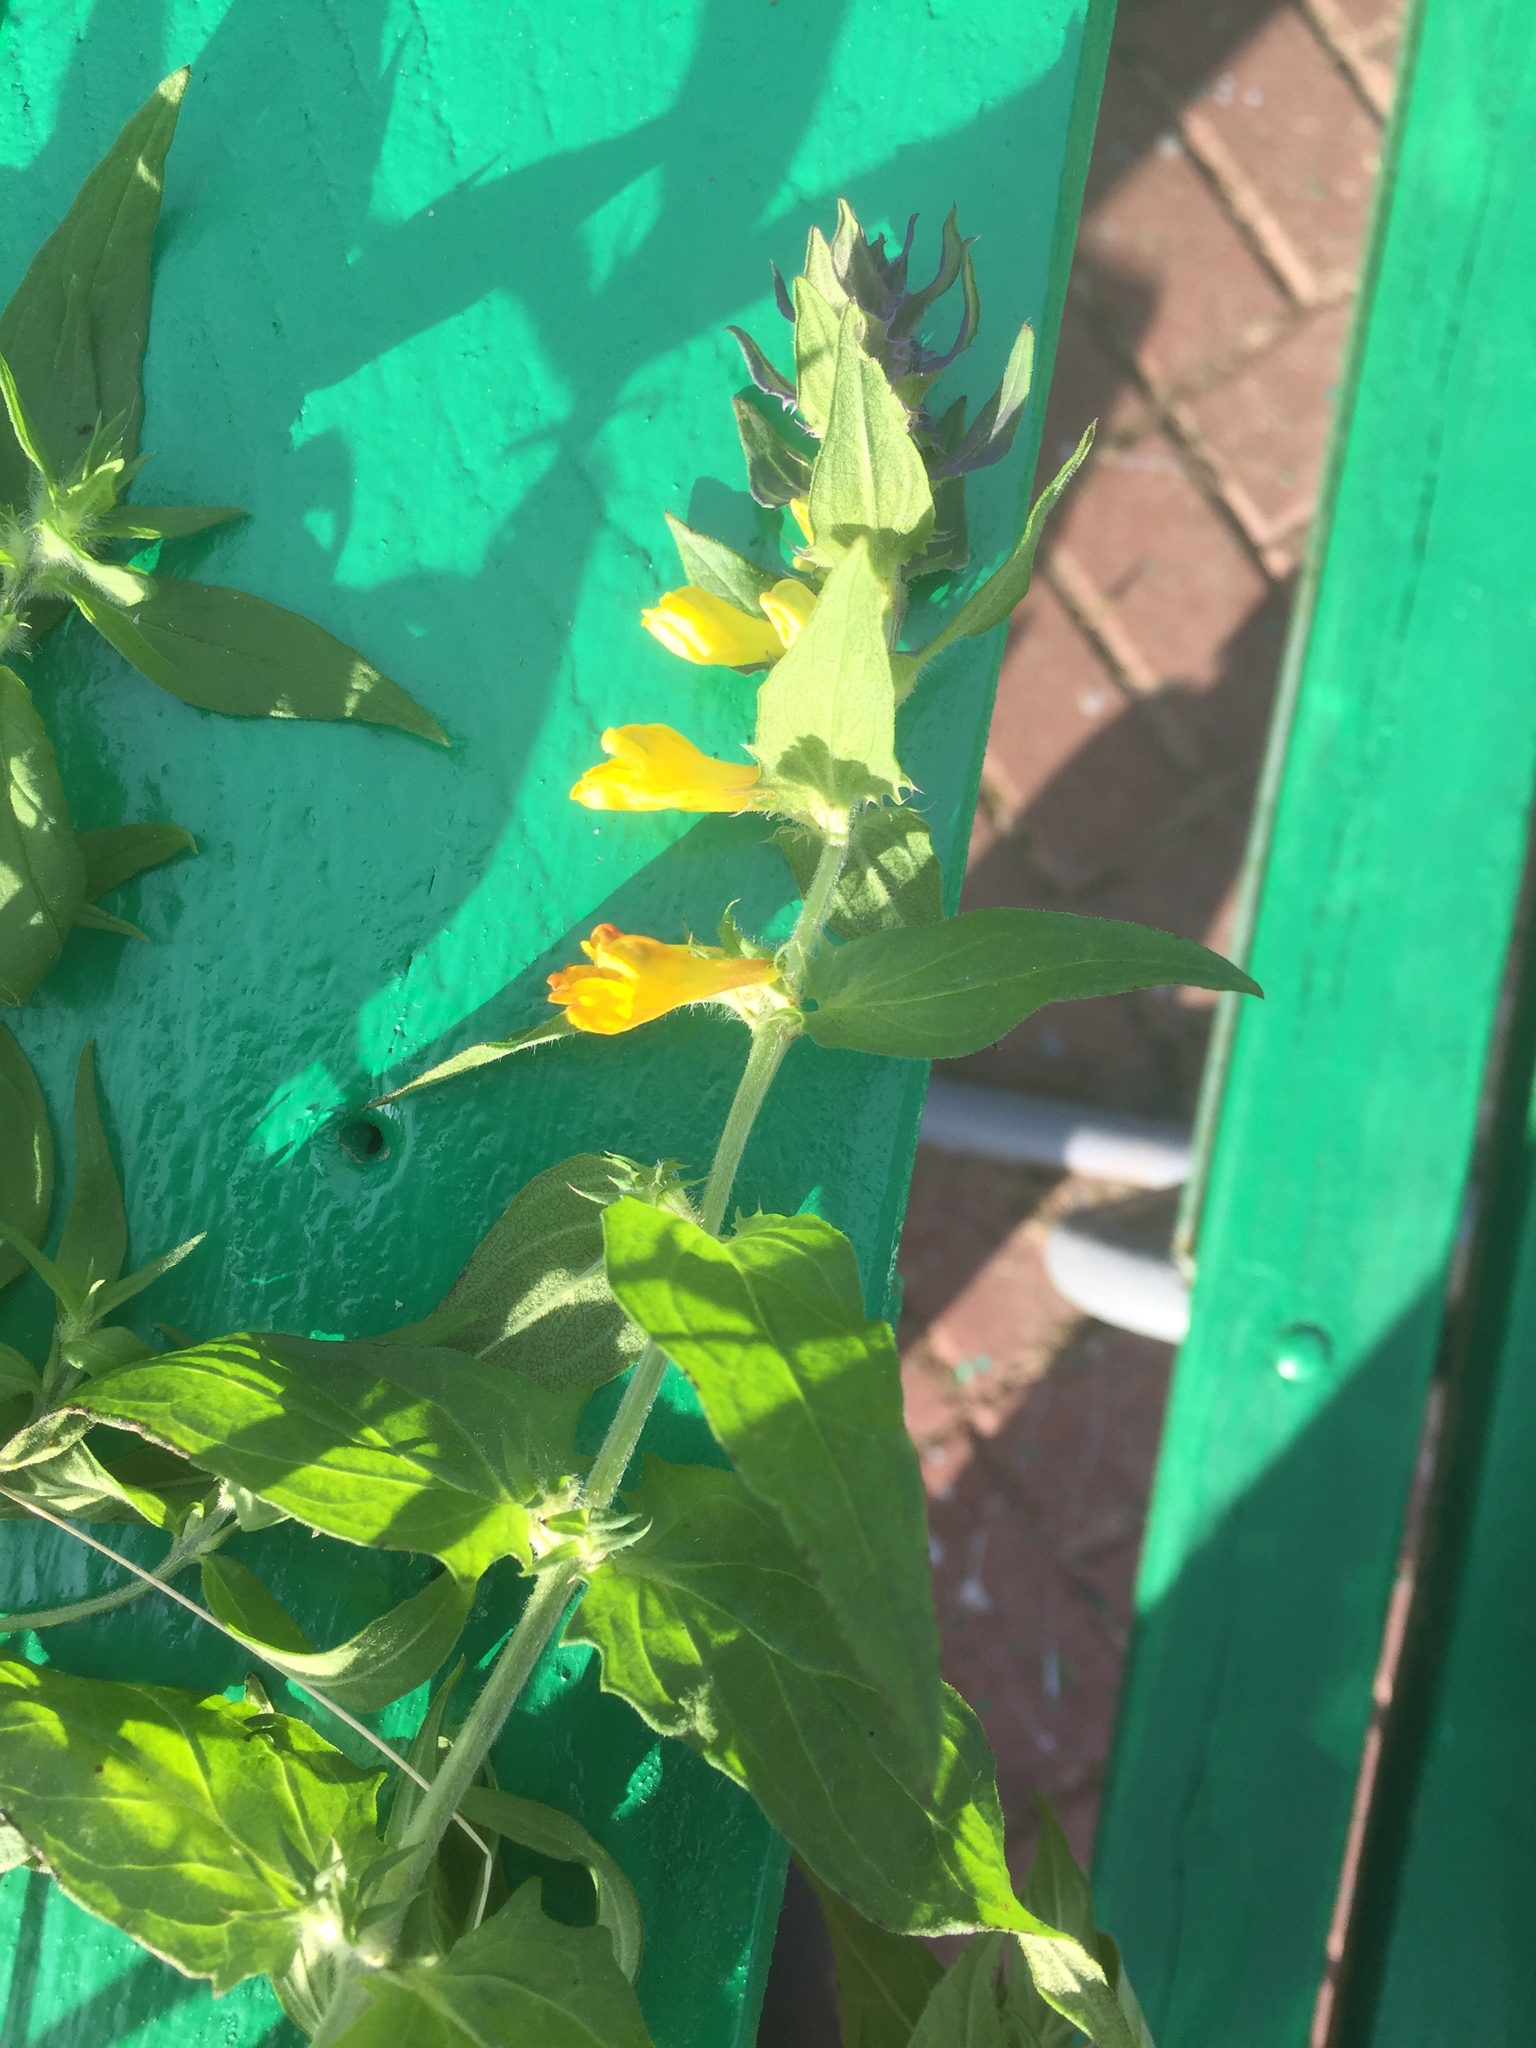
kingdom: Plantae
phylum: Tracheophyta
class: Magnoliopsida
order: Lamiales
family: Orobanchaceae
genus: Melampyrum
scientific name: Melampyrum nemorosum
